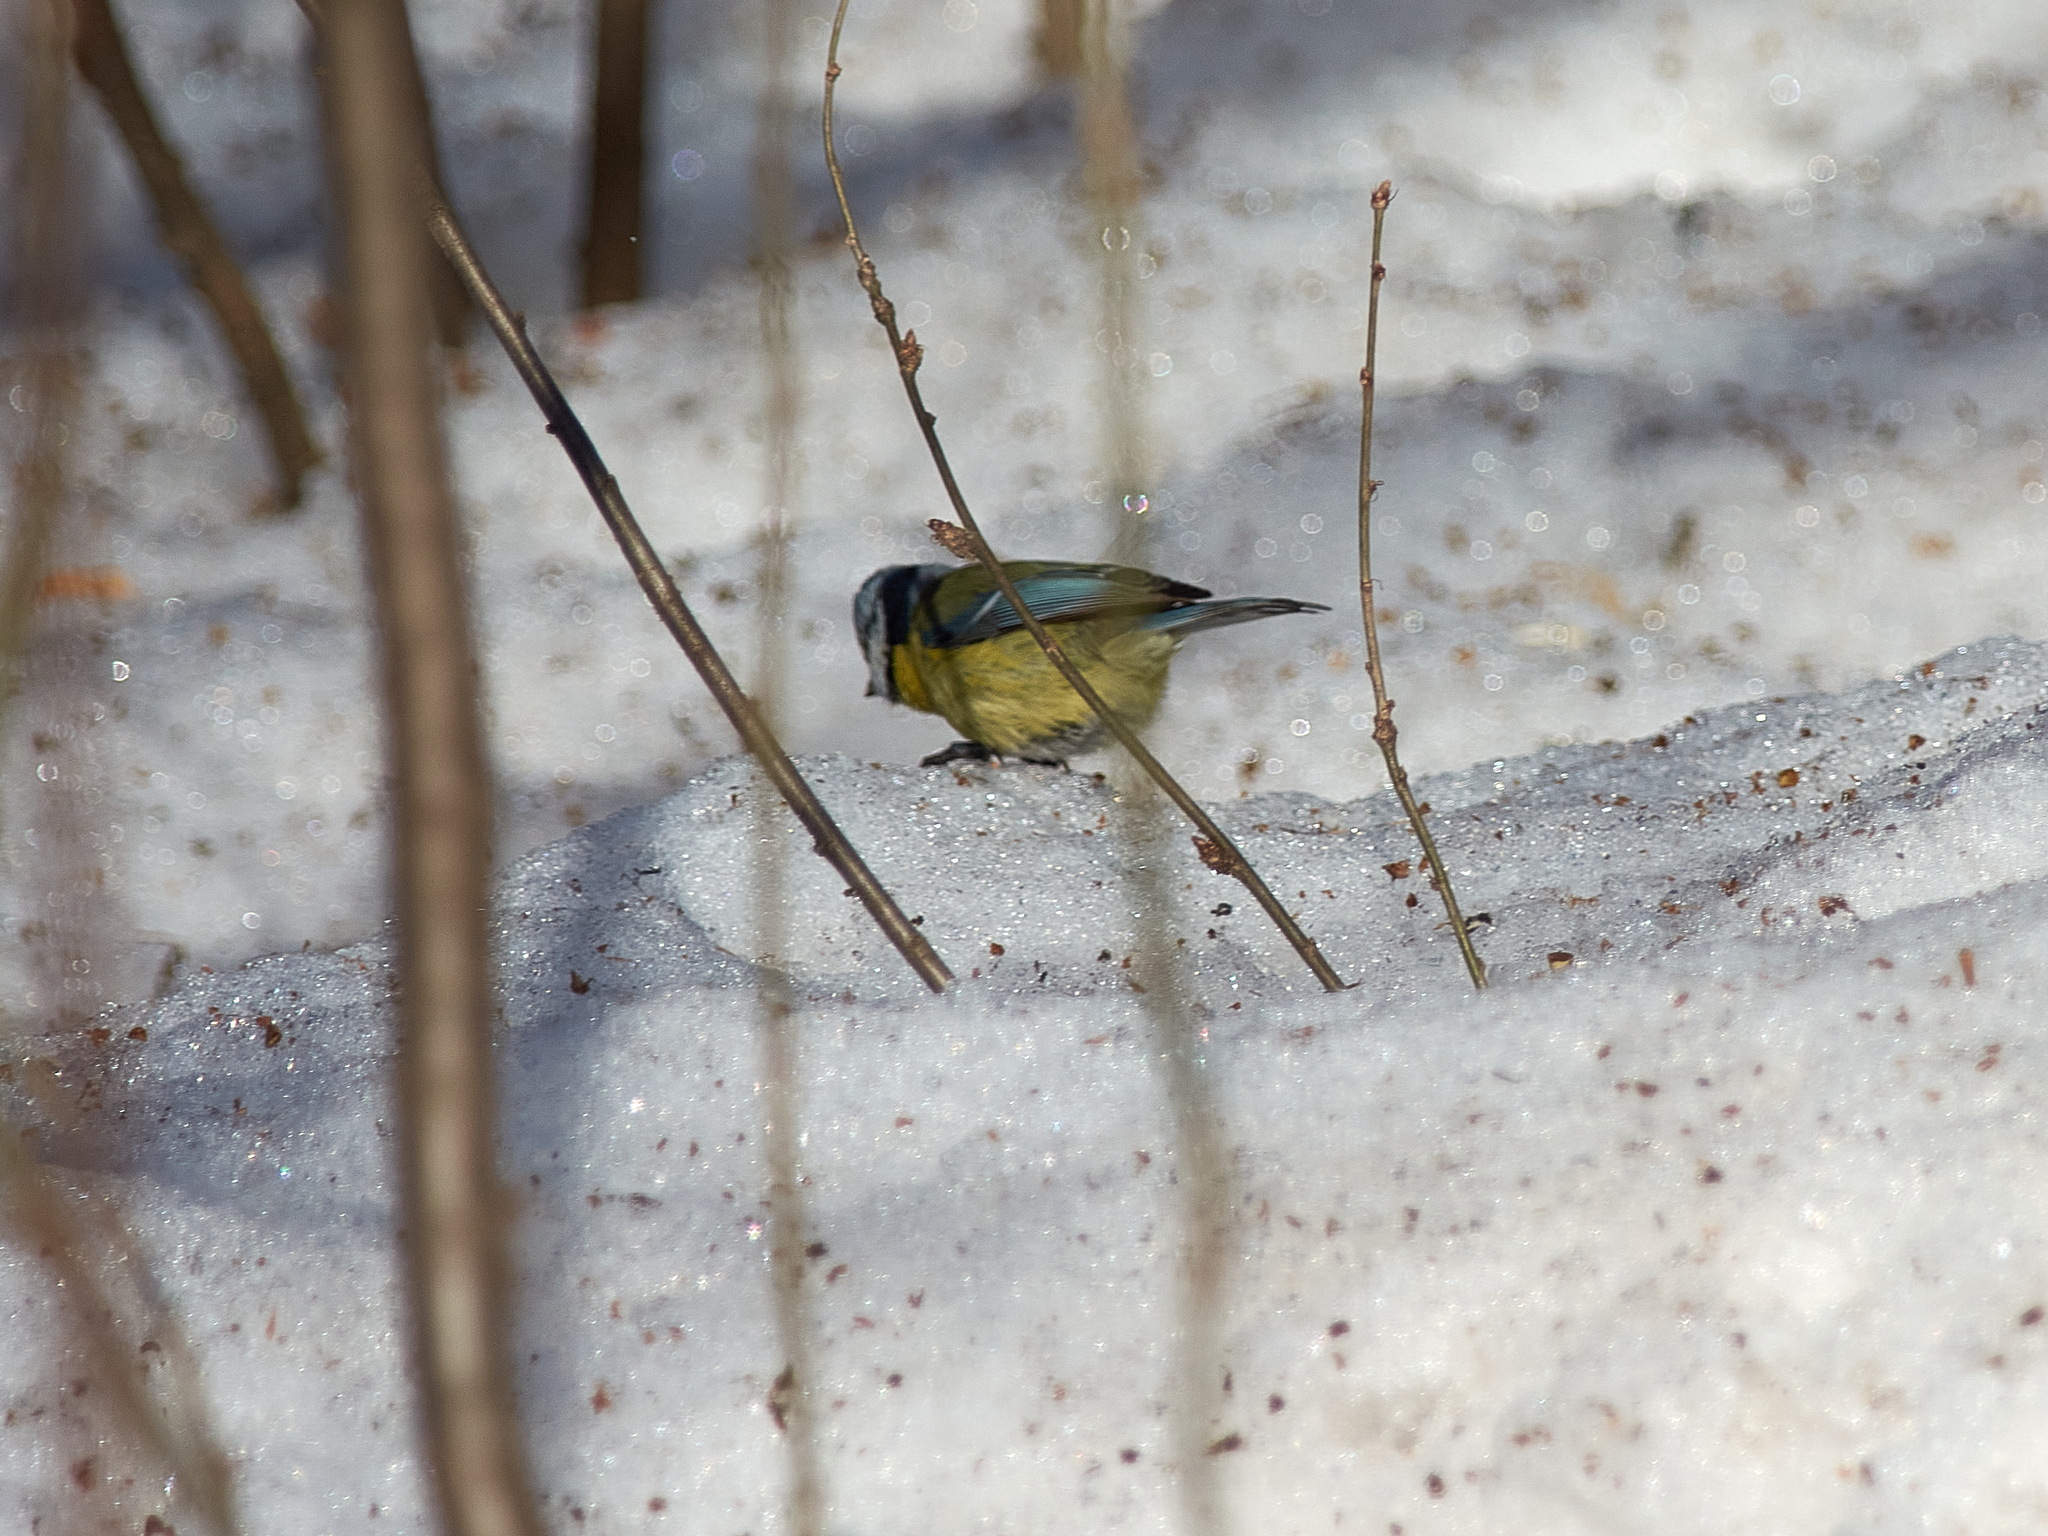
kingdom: Animalia
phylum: Chordata
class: Aves
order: Passeriformes
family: Paridae
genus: Cyanistes
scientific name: Cyanistes caeruleus
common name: Eurasian blue tit
